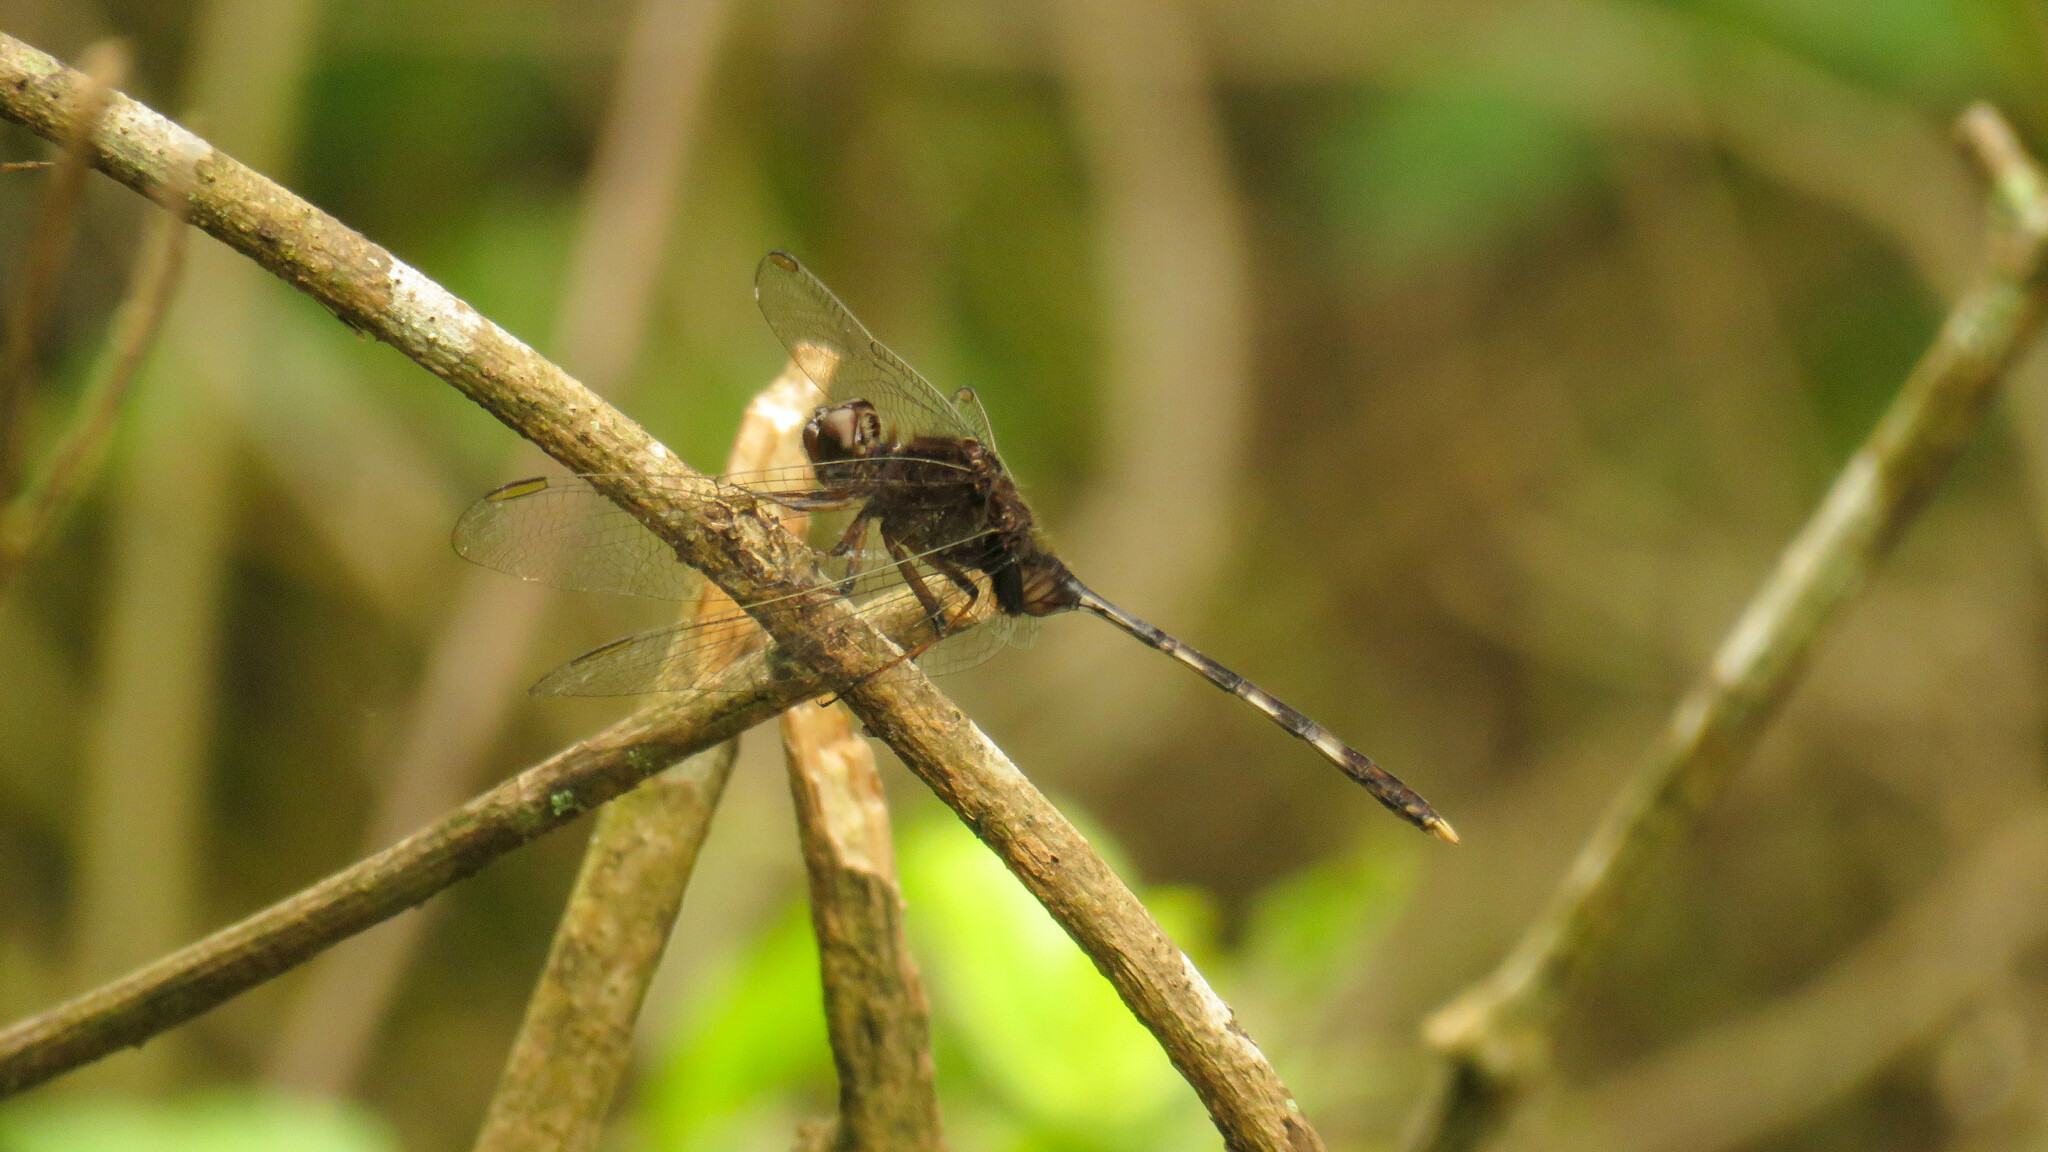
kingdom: Animalia
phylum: Arthropoda
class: Insecta
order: Odonata
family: Libellulidae
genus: Erythemis
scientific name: Erythemis plebeja
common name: Pin-tailed pondhawk
